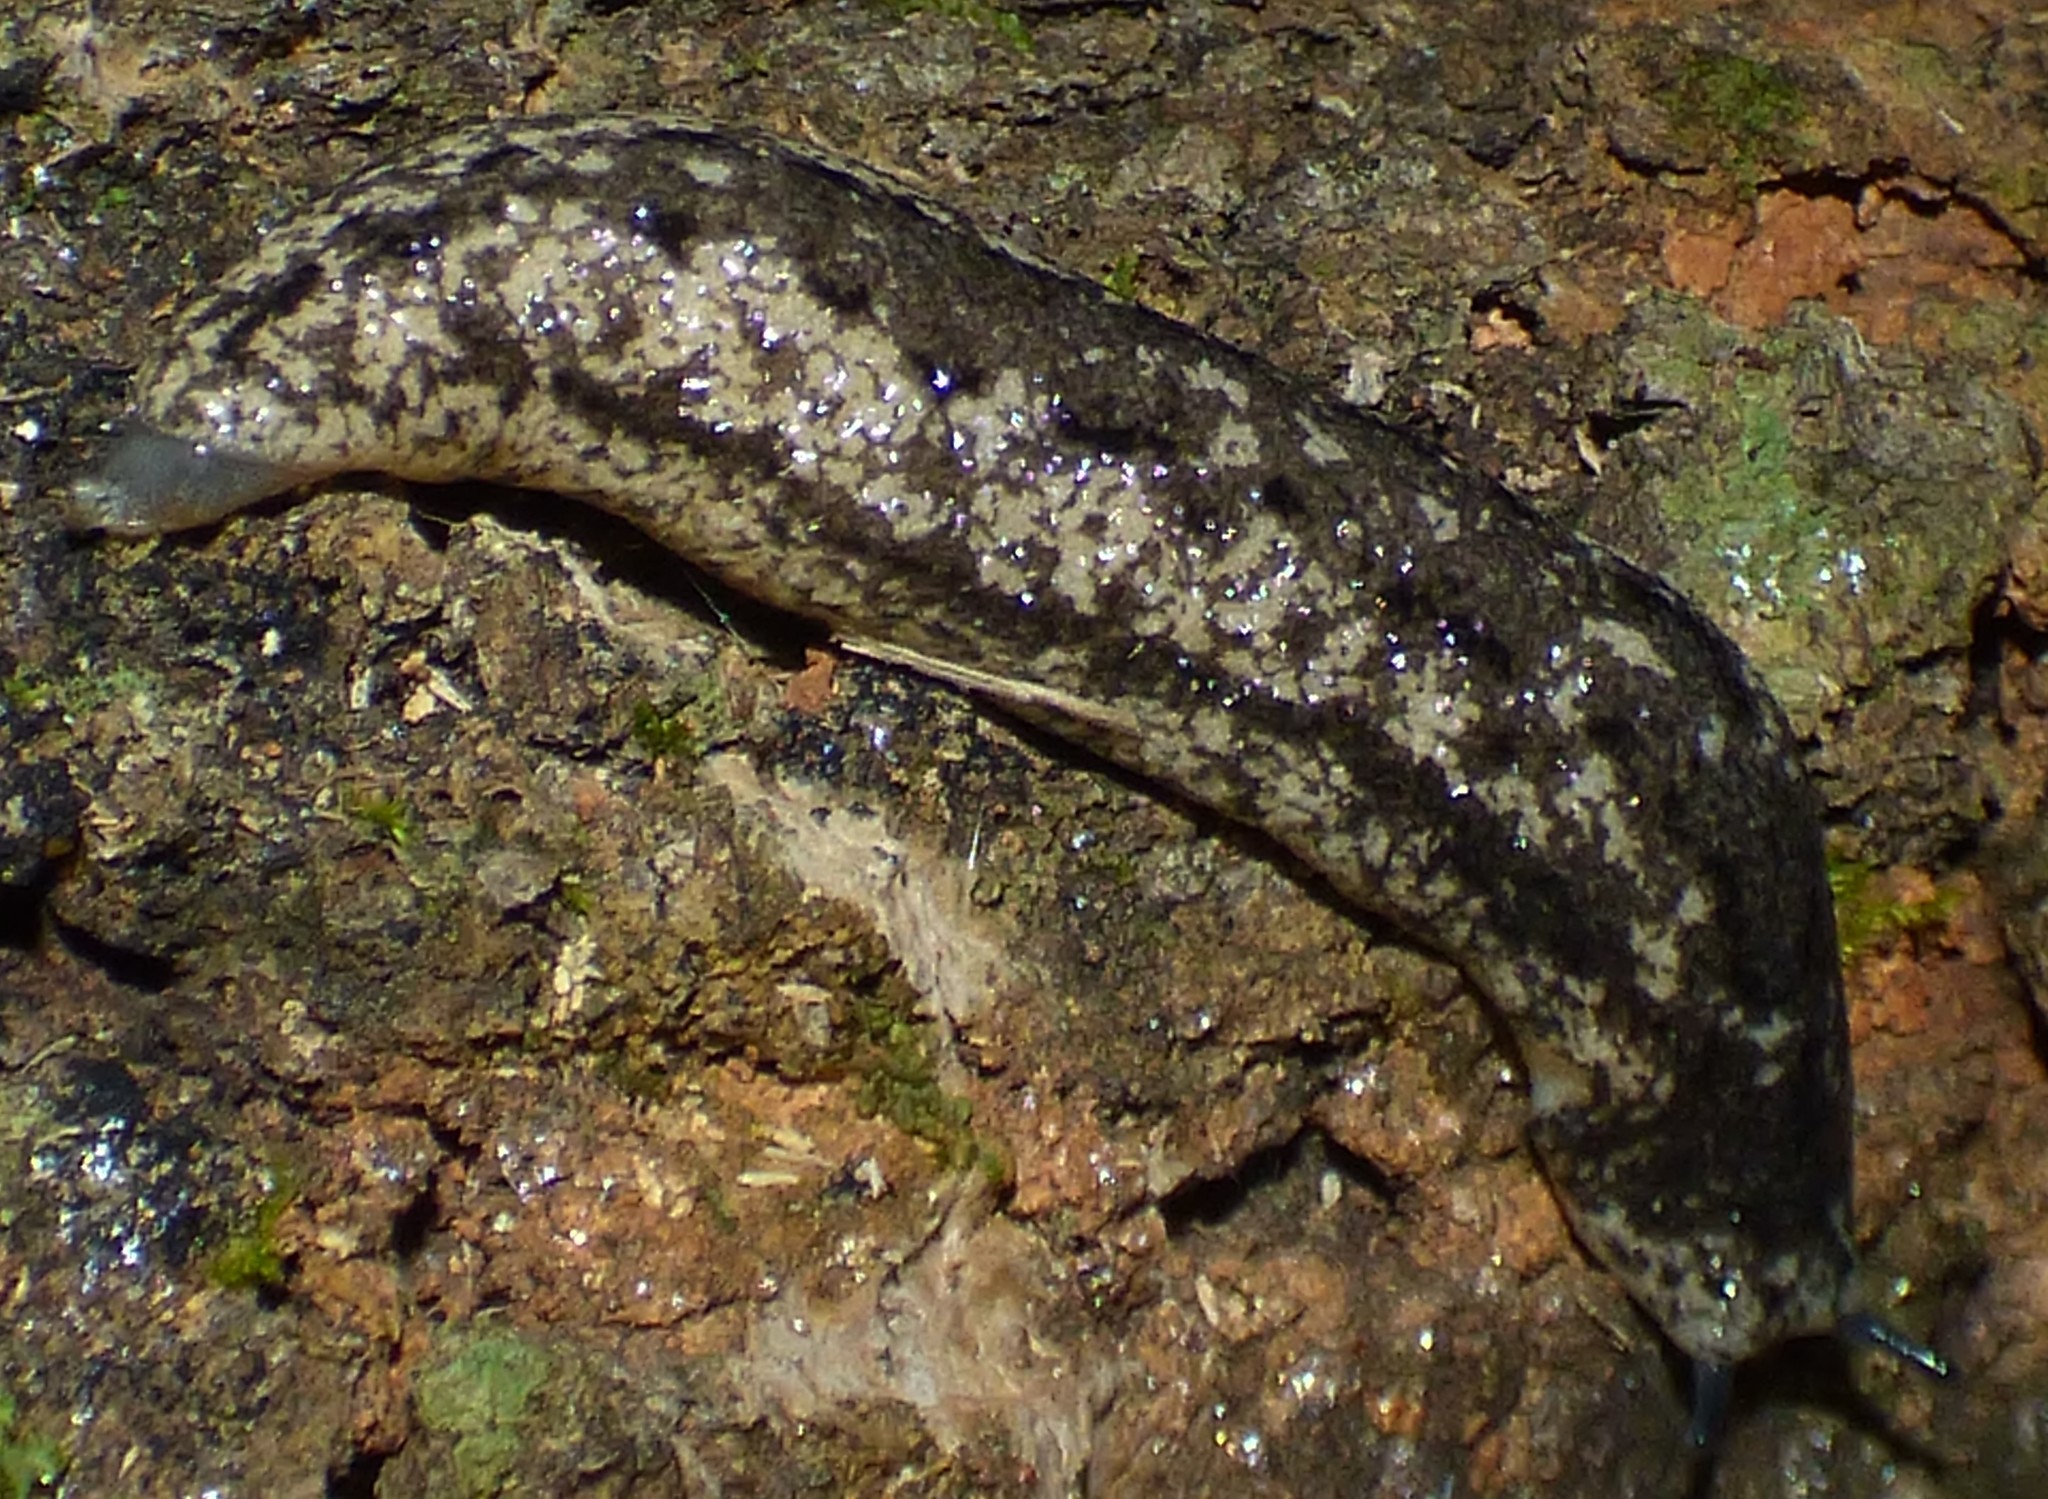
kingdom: Animalia
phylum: Mollusca
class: Gastropoda
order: Stylommatophora
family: Philomycidae
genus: Philomycus
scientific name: Philomycus carolinianus
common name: Carolina mantleslug
